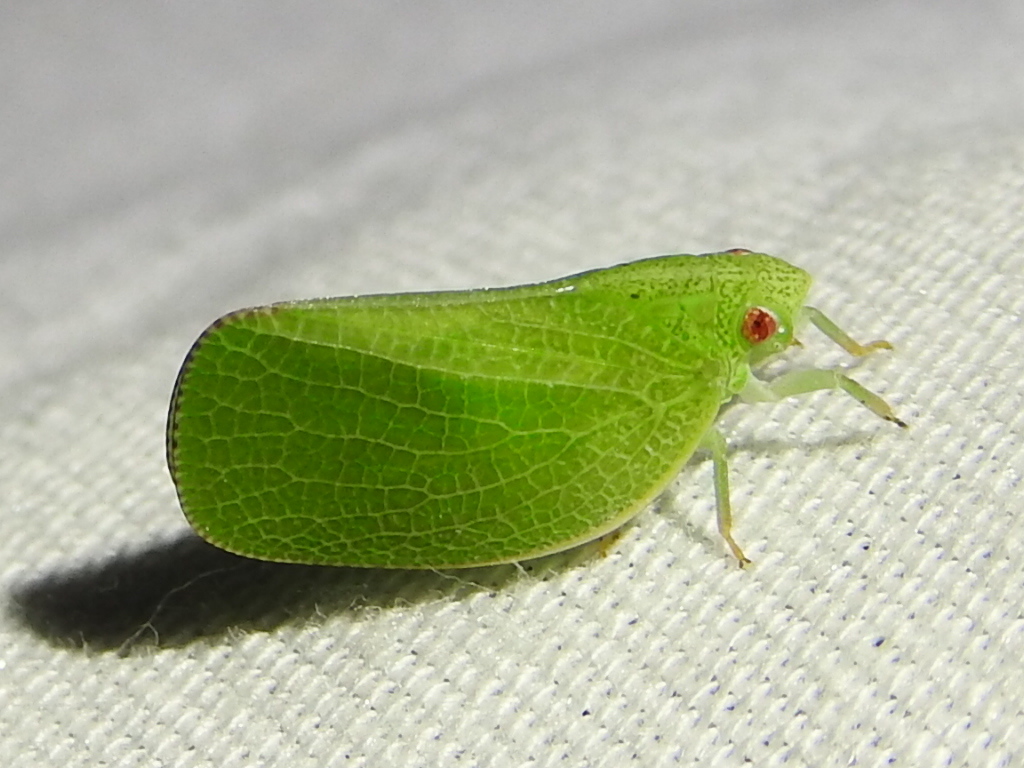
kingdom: Animalia
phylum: Arthropoda
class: Insecta
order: Hemiptera
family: Acanaloniidae
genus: Acanalonia
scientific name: Acanalonia conica
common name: Green cone-headed planthopper
